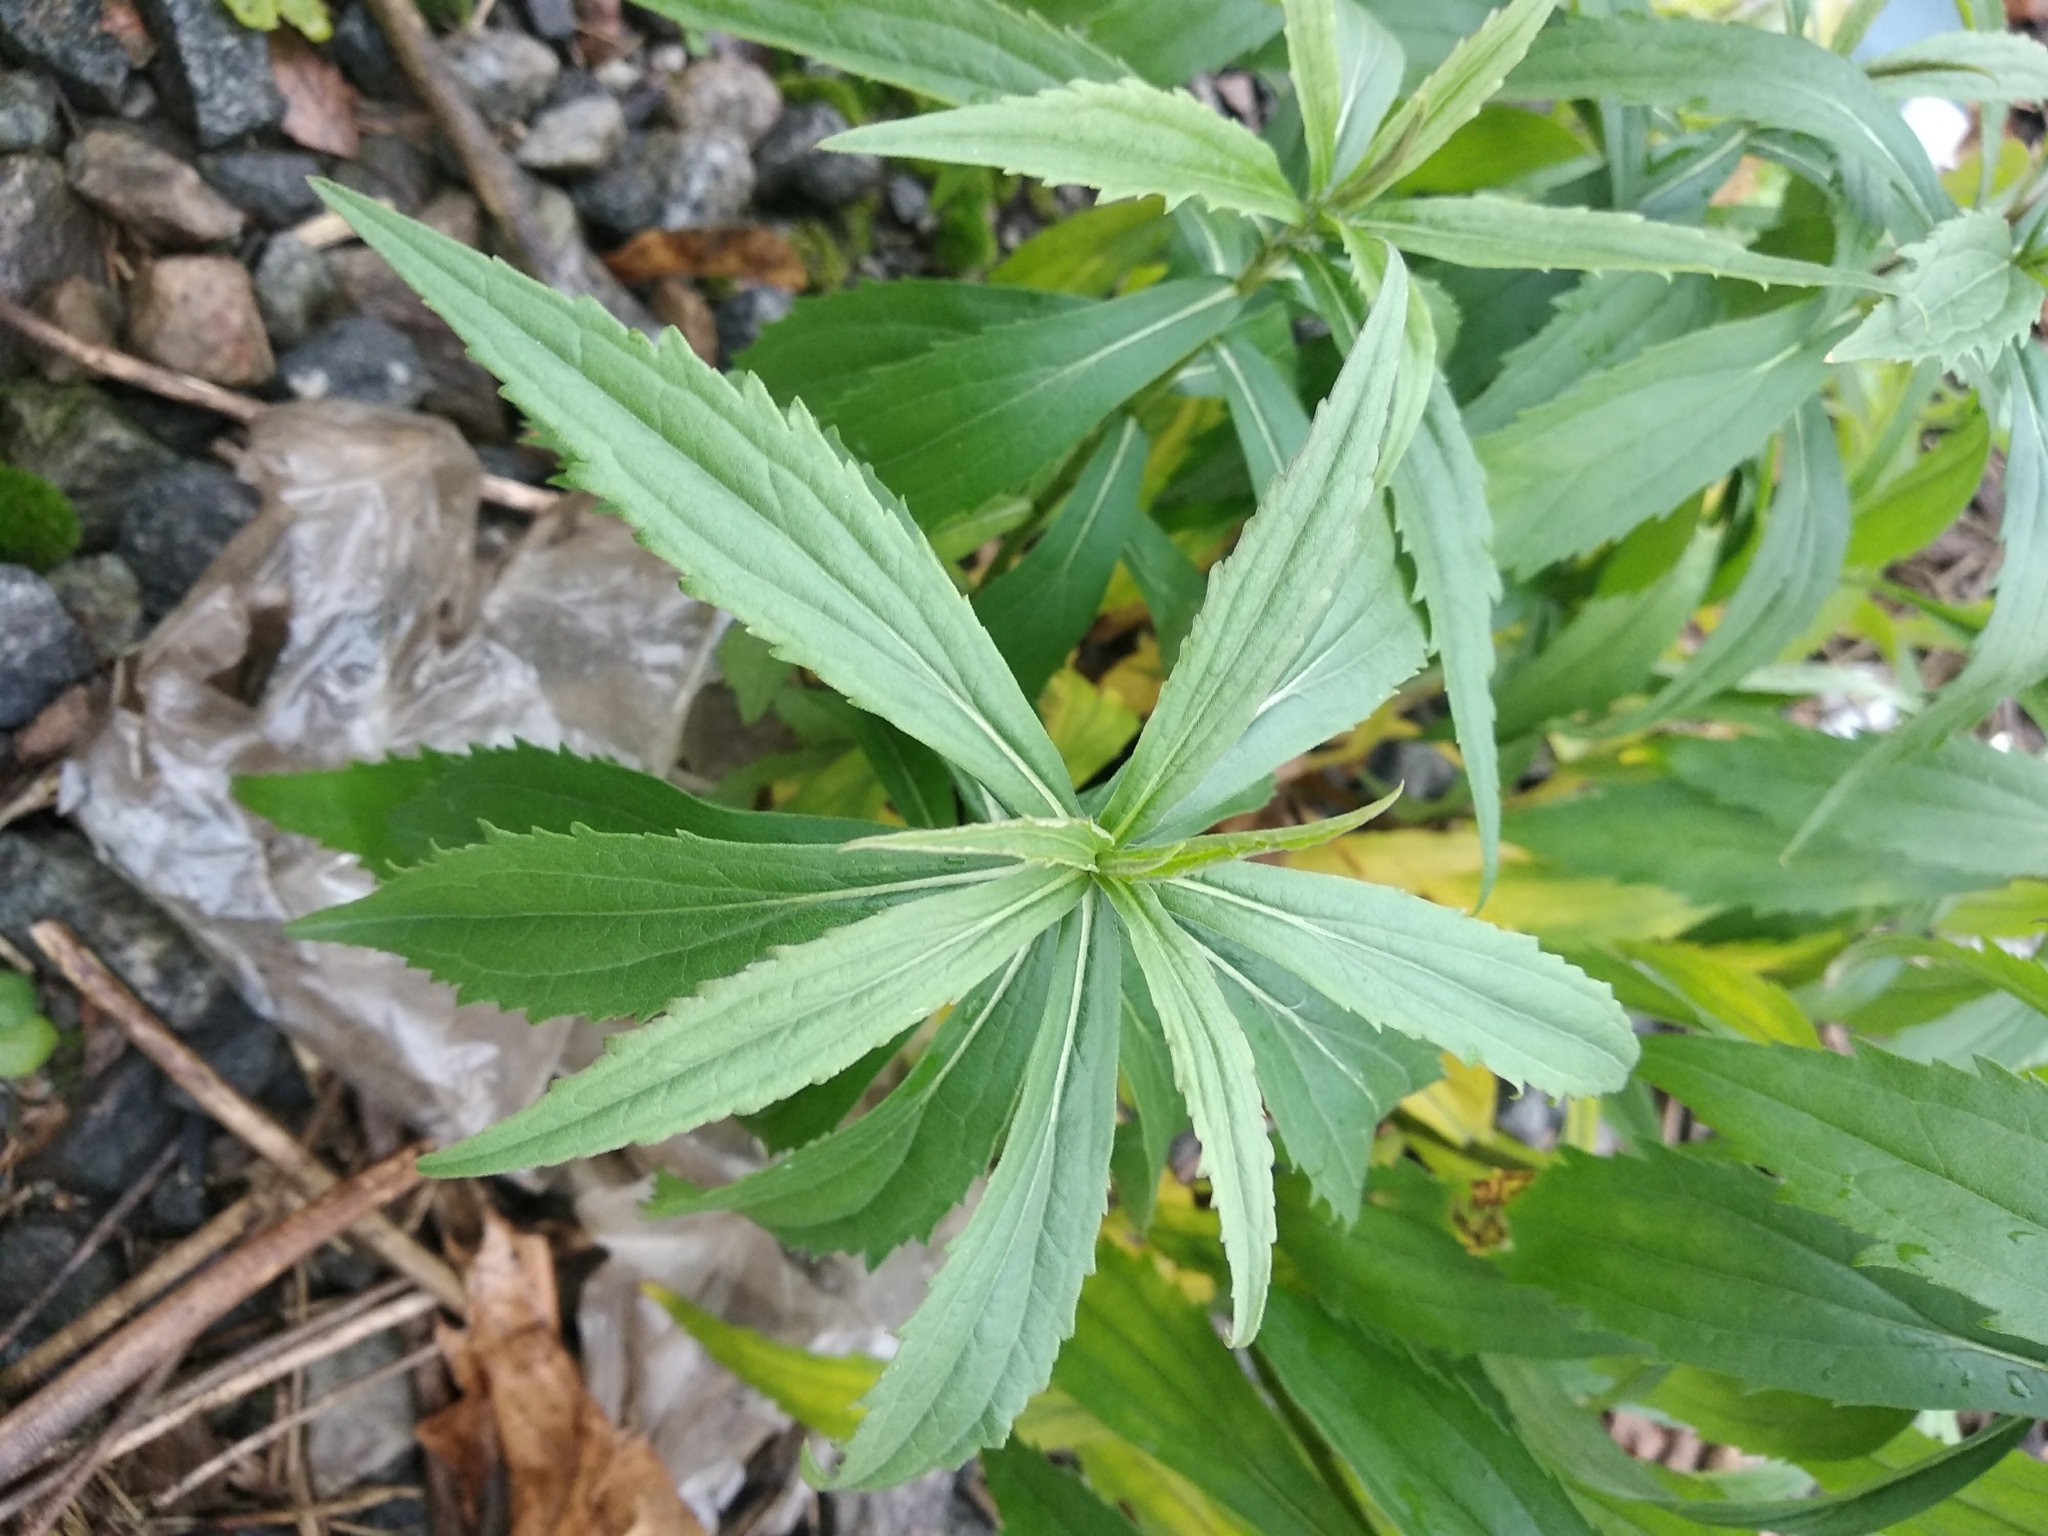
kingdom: Plantae
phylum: Tracheophyta
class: Magnoliopsida
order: Asterales
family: Asteraceae
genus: Solidago
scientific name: Solidago canadensis
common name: Canada goldenrod
